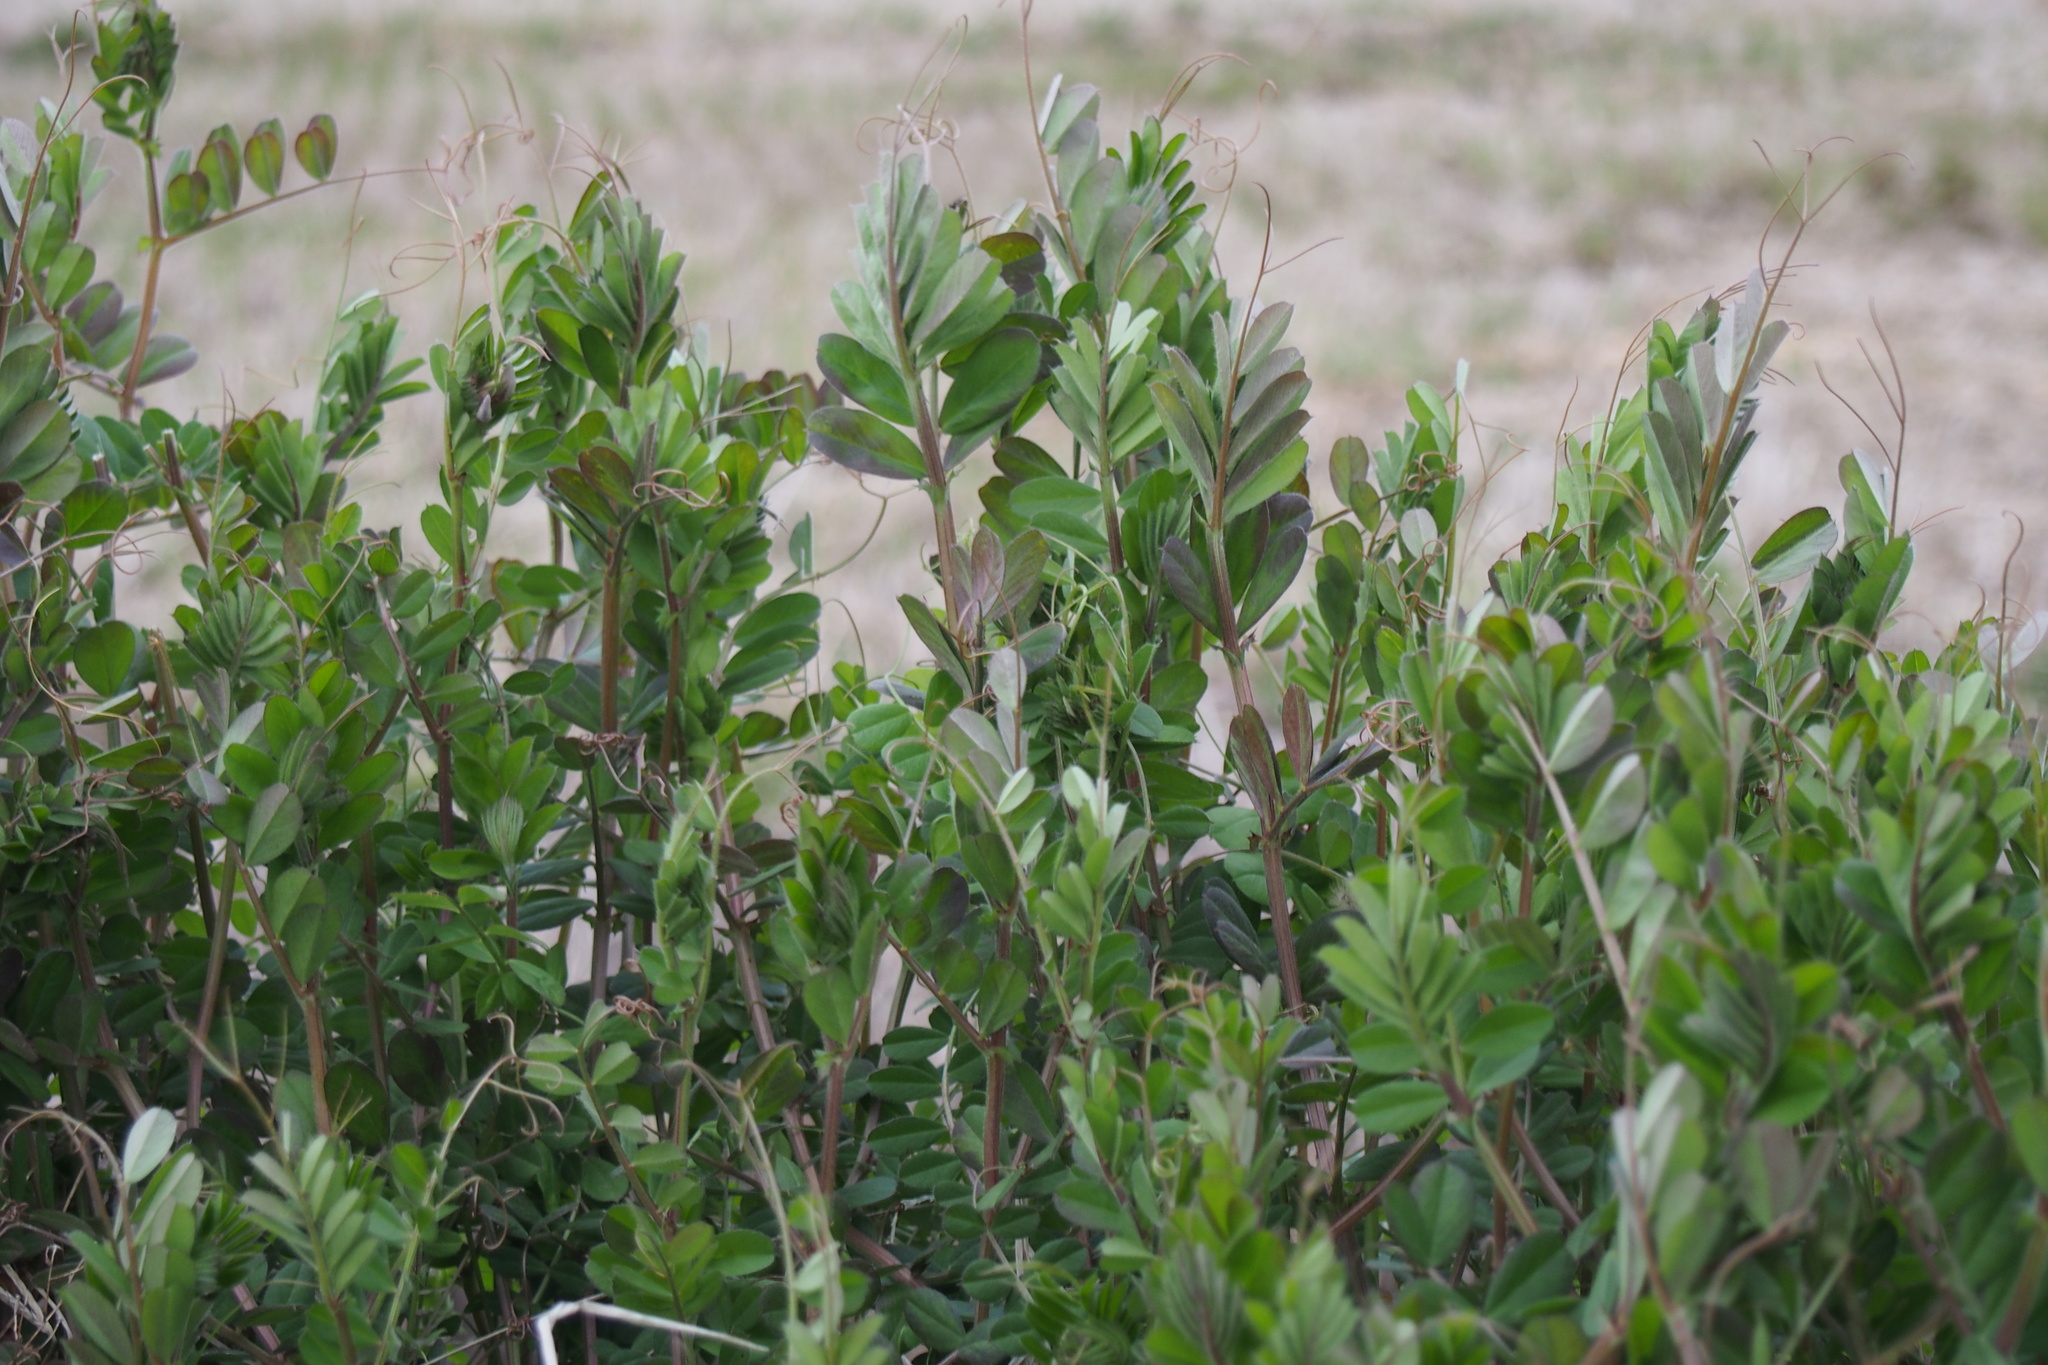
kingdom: Plantae
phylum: Tracheophyta
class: Magnoliopsida
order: Fabales
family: Fabaceae
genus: Vicia
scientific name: Vicia sativa
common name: Garden vetch
